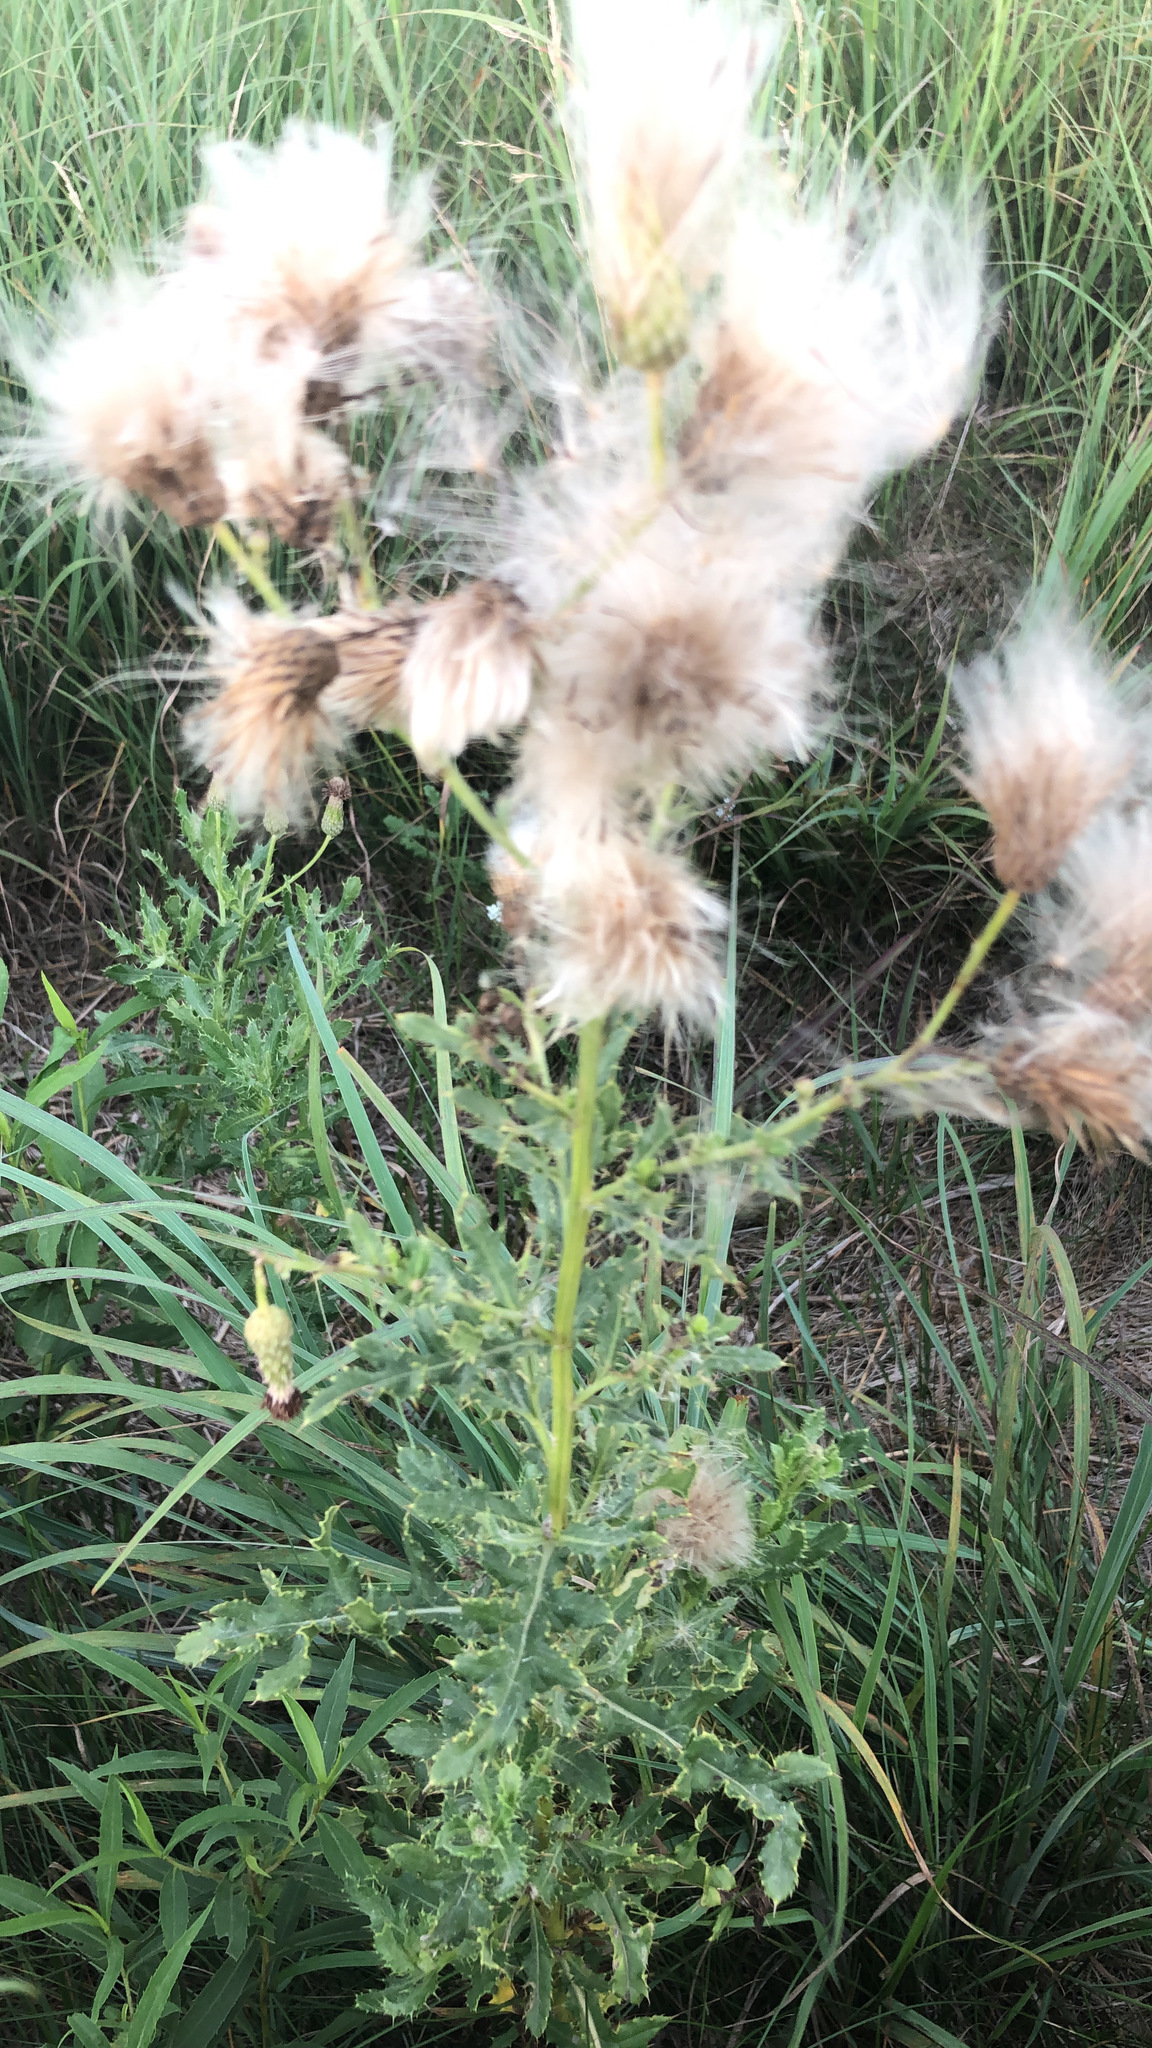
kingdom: Plantae
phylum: Tracheophyta
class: Magnoliopsida
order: Asterales
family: Asteraceae
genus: Cirsium
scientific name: Cirsium arvense
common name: Creeping thistle
